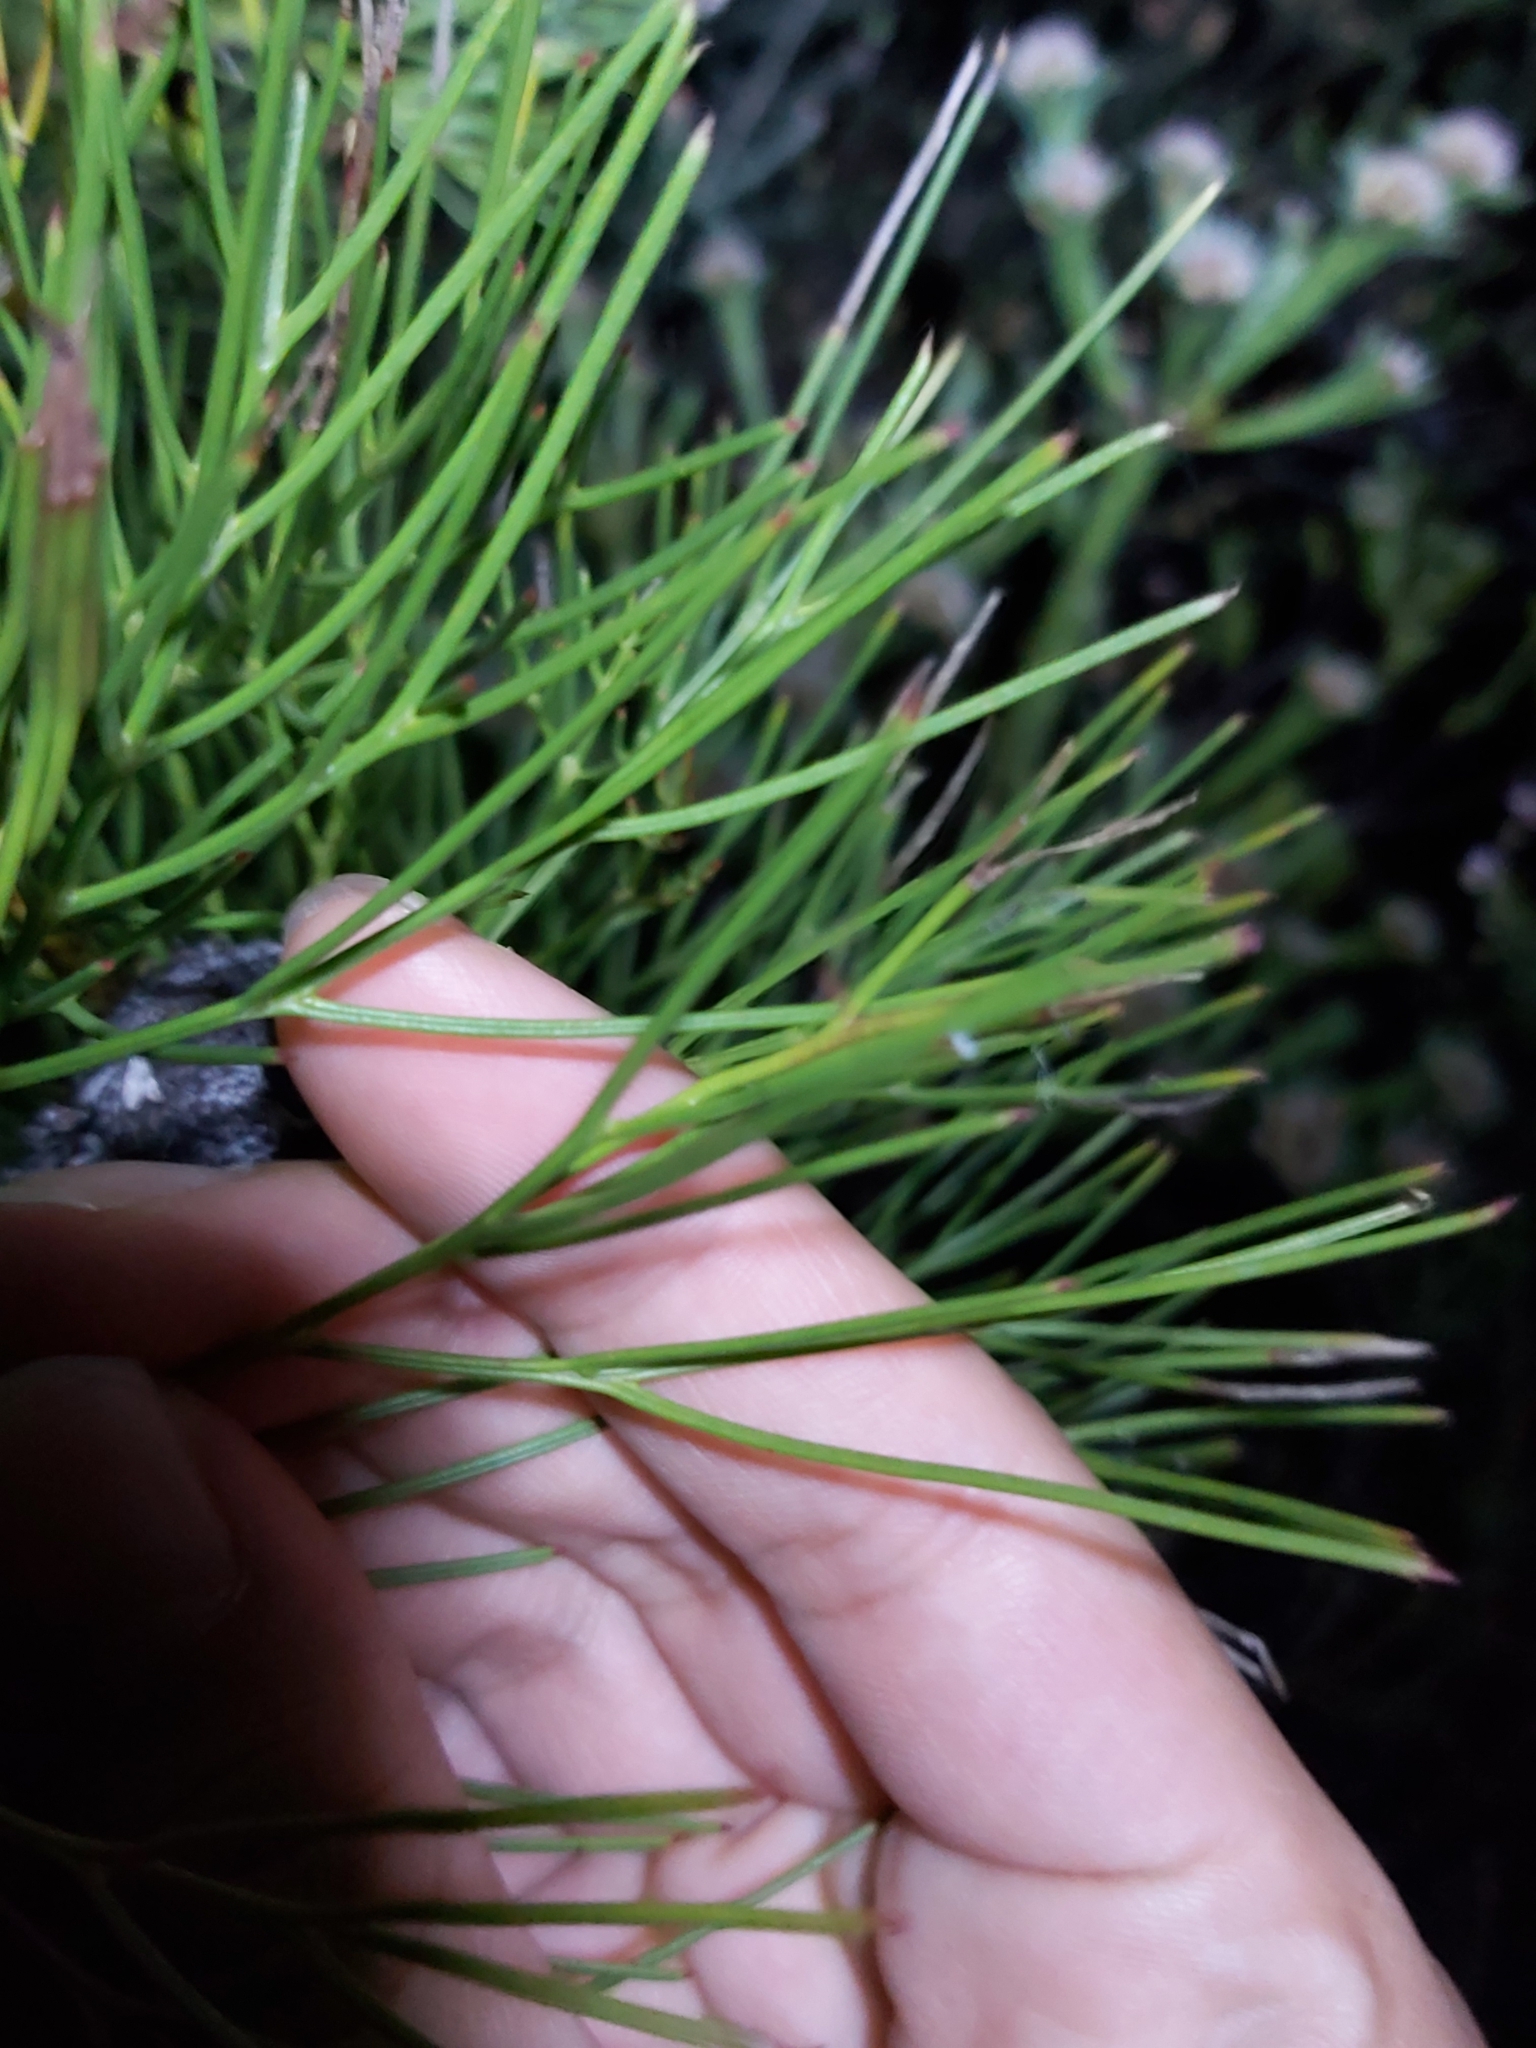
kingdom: Plantae
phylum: Tracheophyta
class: Magnoliopsida
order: Proteales
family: Proteaceae
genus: Isopogon
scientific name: Isopogon anethifolius
